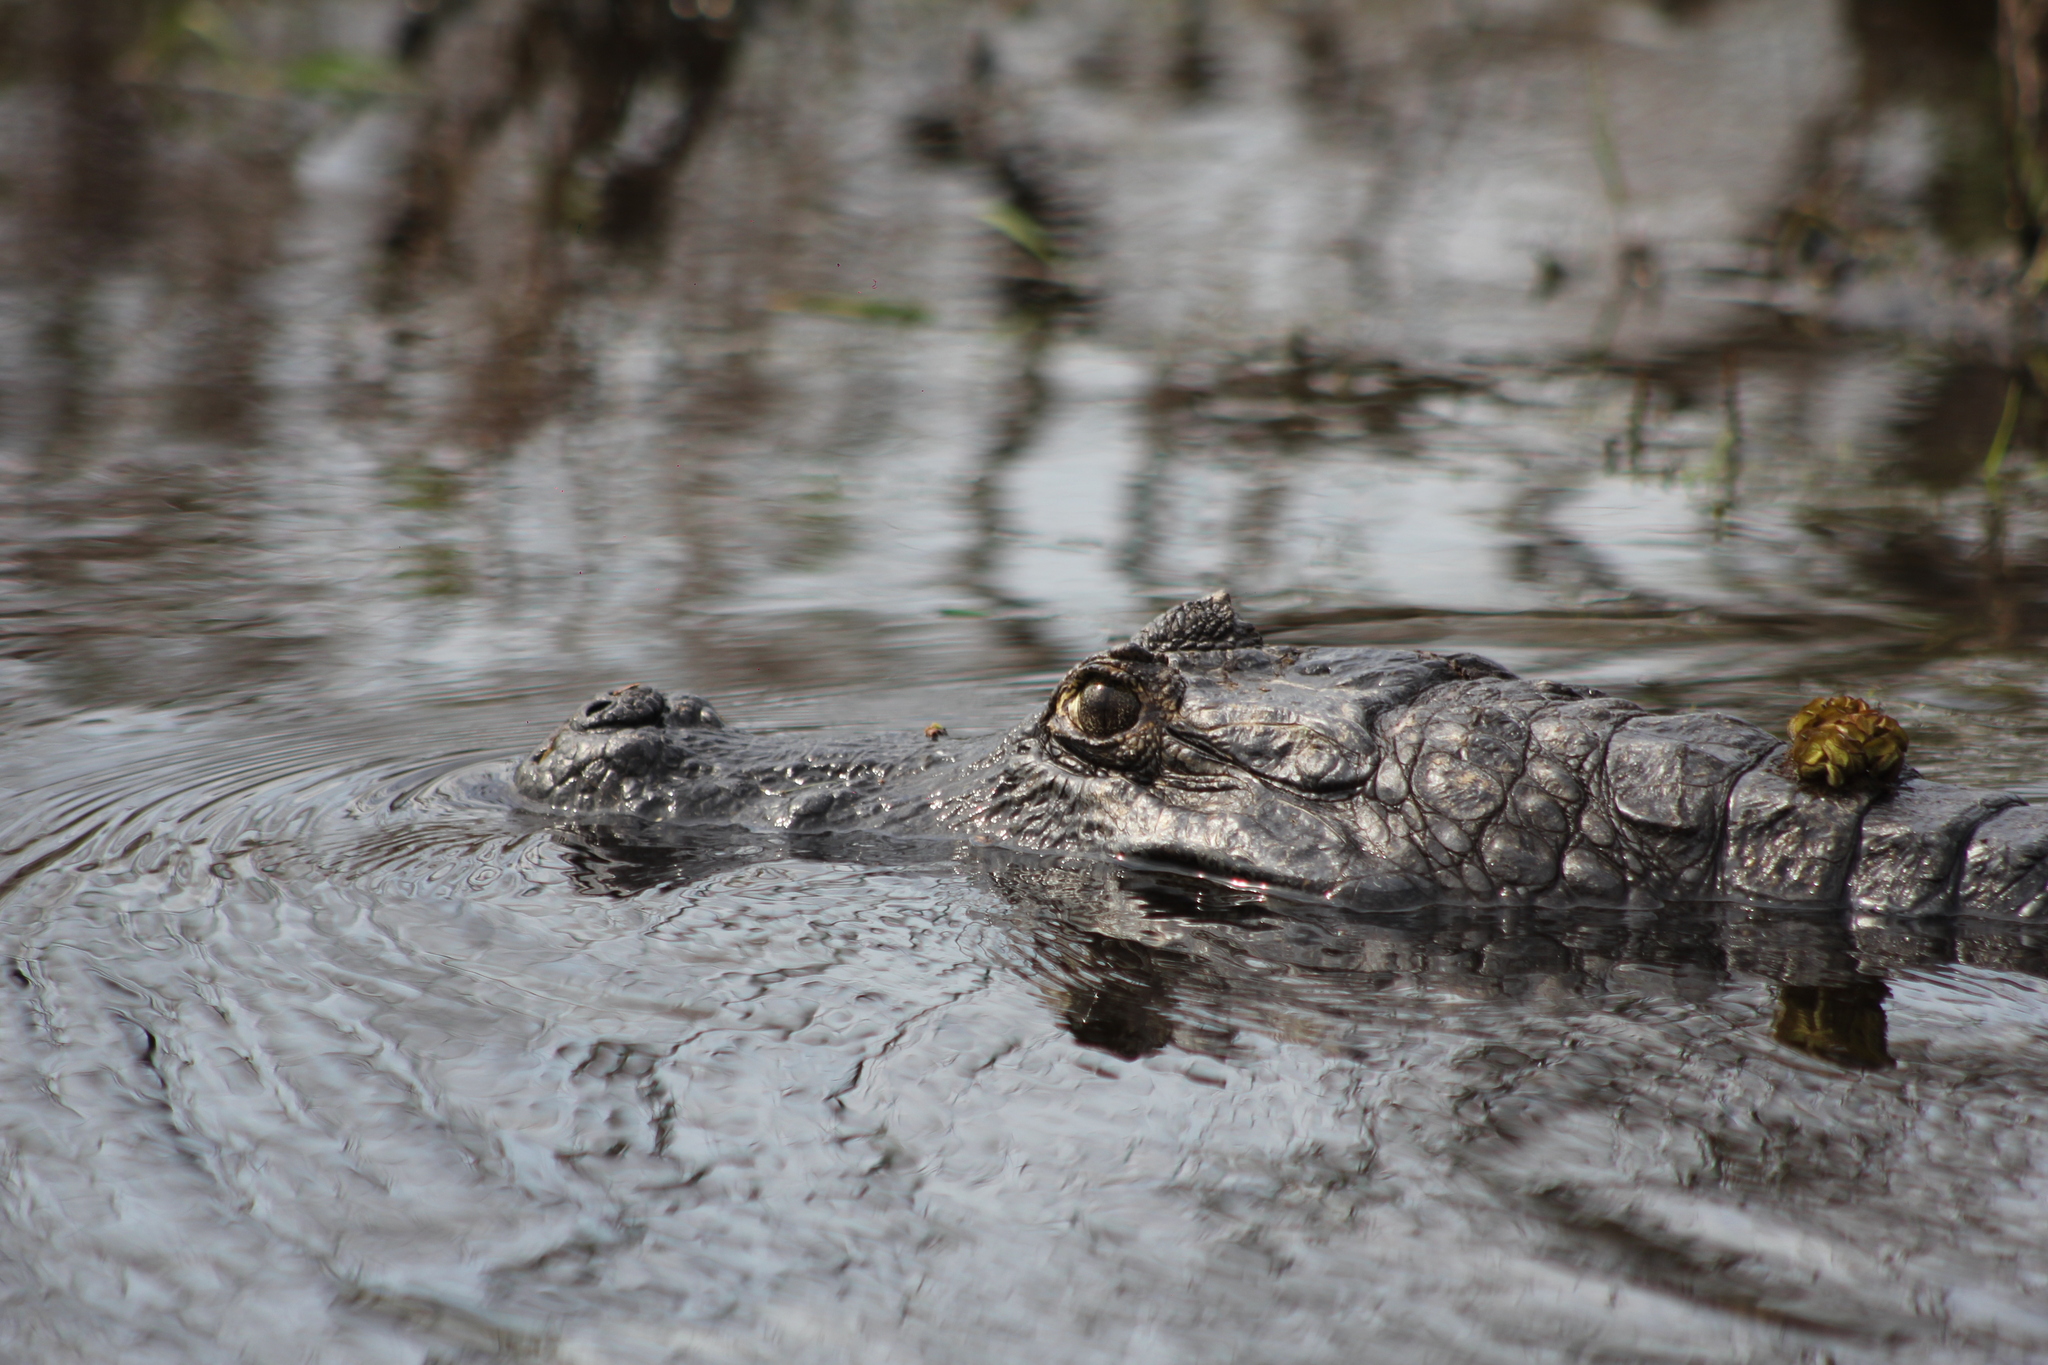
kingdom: Animalia
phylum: Chordata
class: Crocodylia
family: Alligatoridae
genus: Caiman
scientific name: Caiman yacare
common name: Yacare caiman
